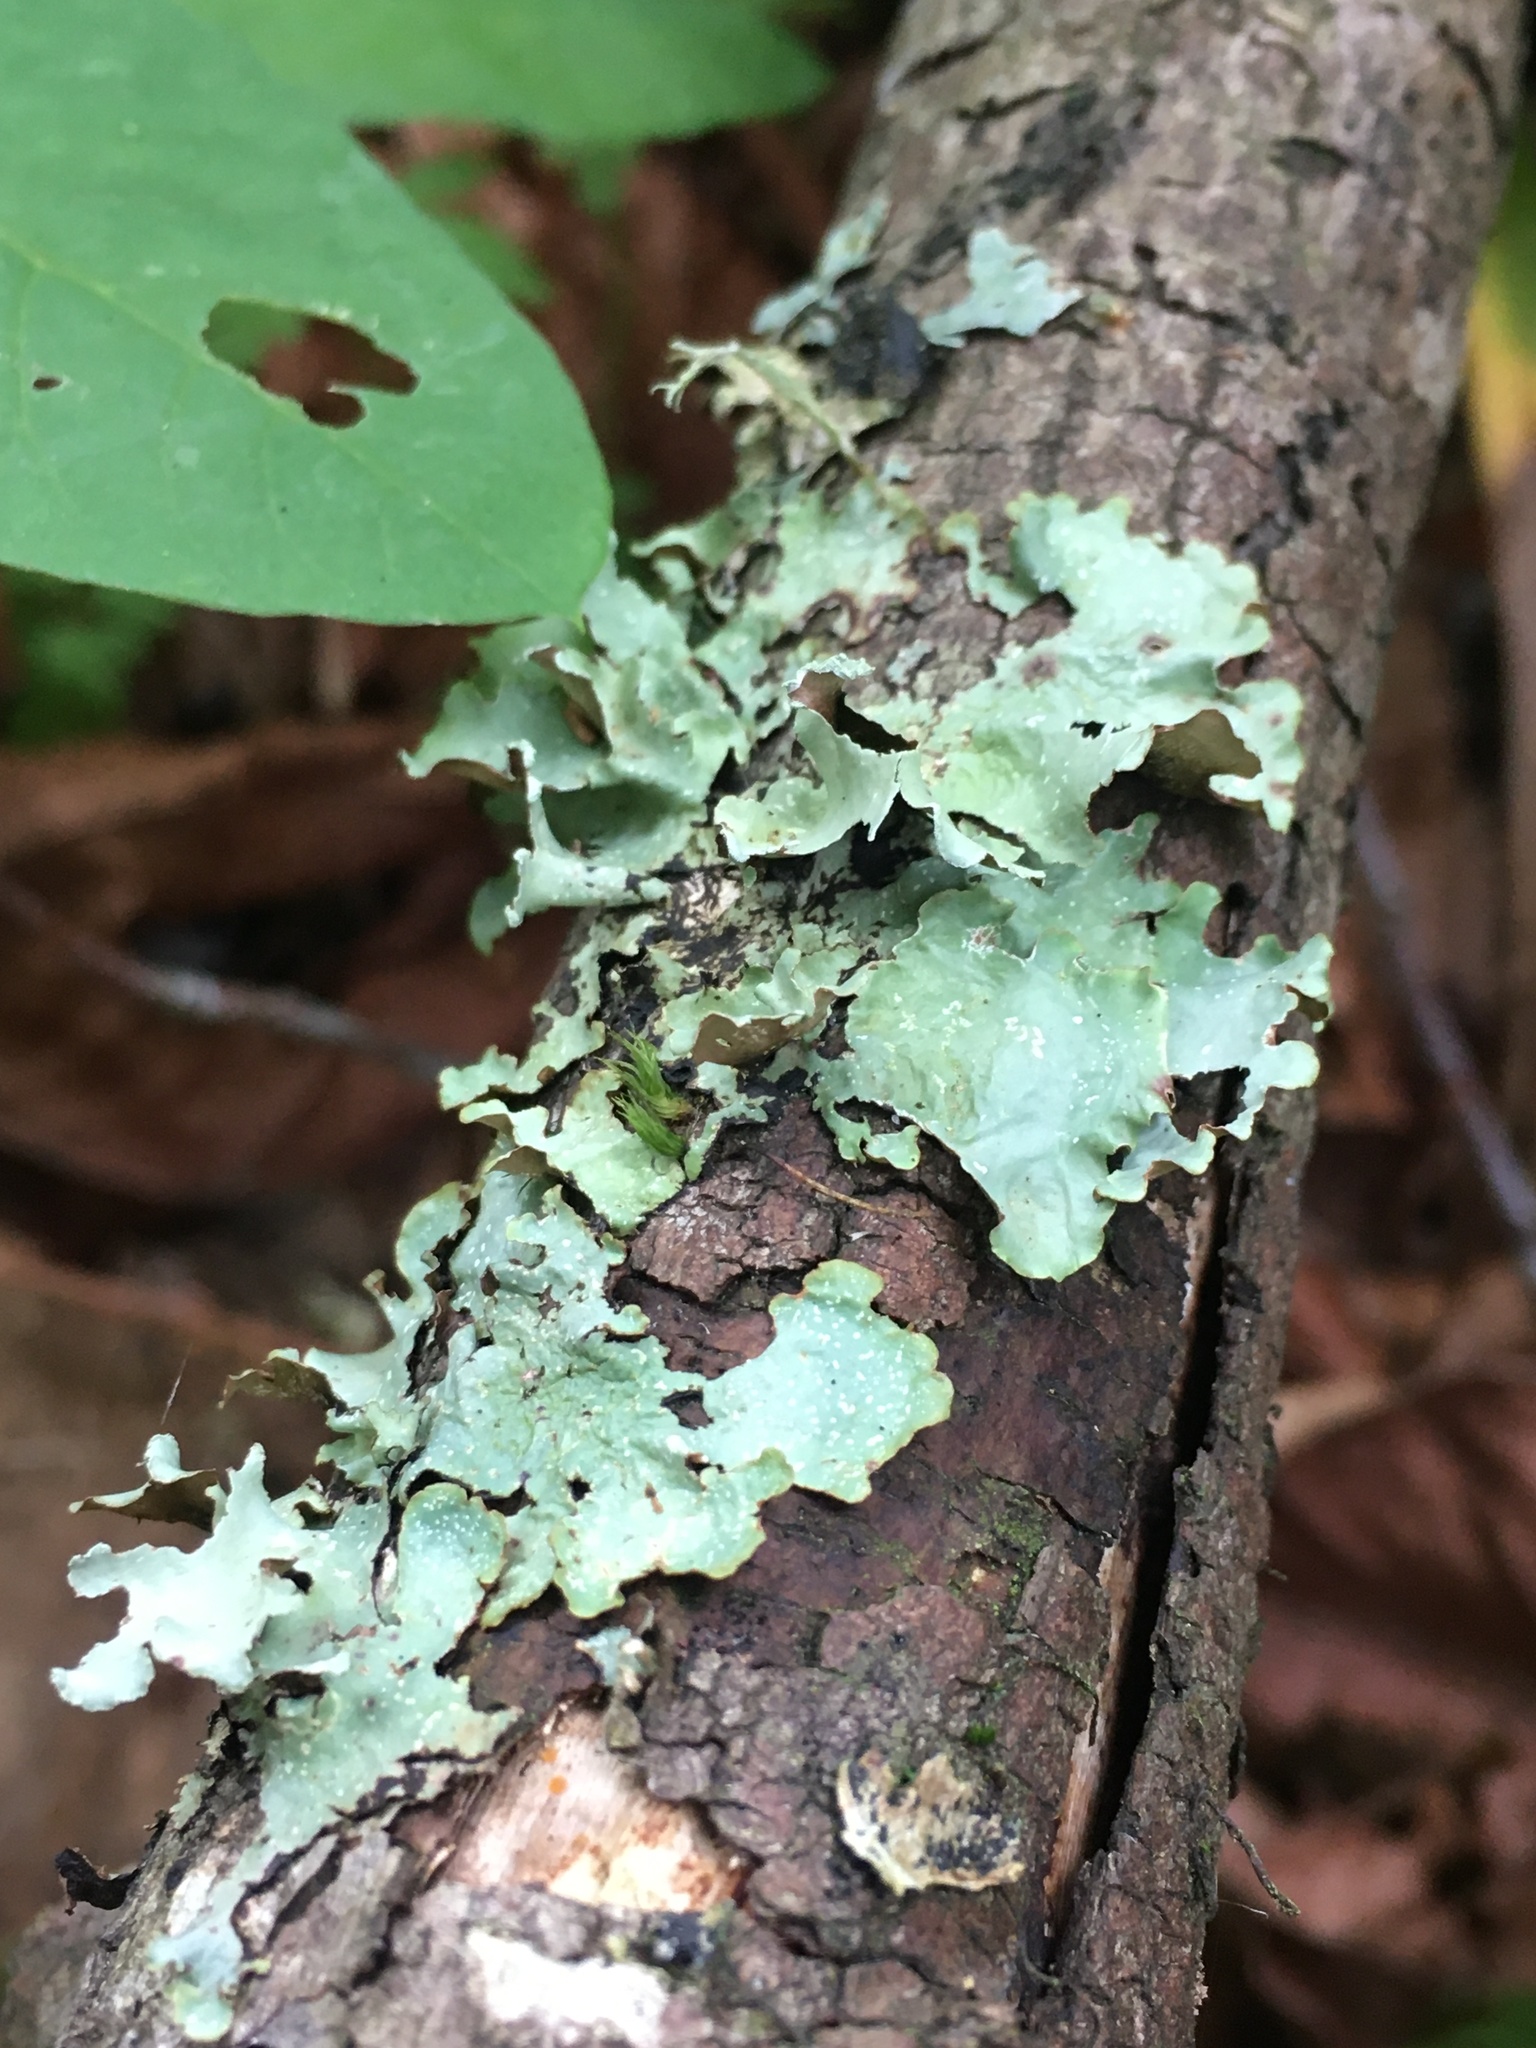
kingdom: Fungi
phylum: Ascomycota
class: Lecanoromycetes
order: Lecanorales
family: Parmeliaceae
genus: Cetrelia
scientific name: Cetrelia cetrarioides
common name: Speckled iceland lichen
